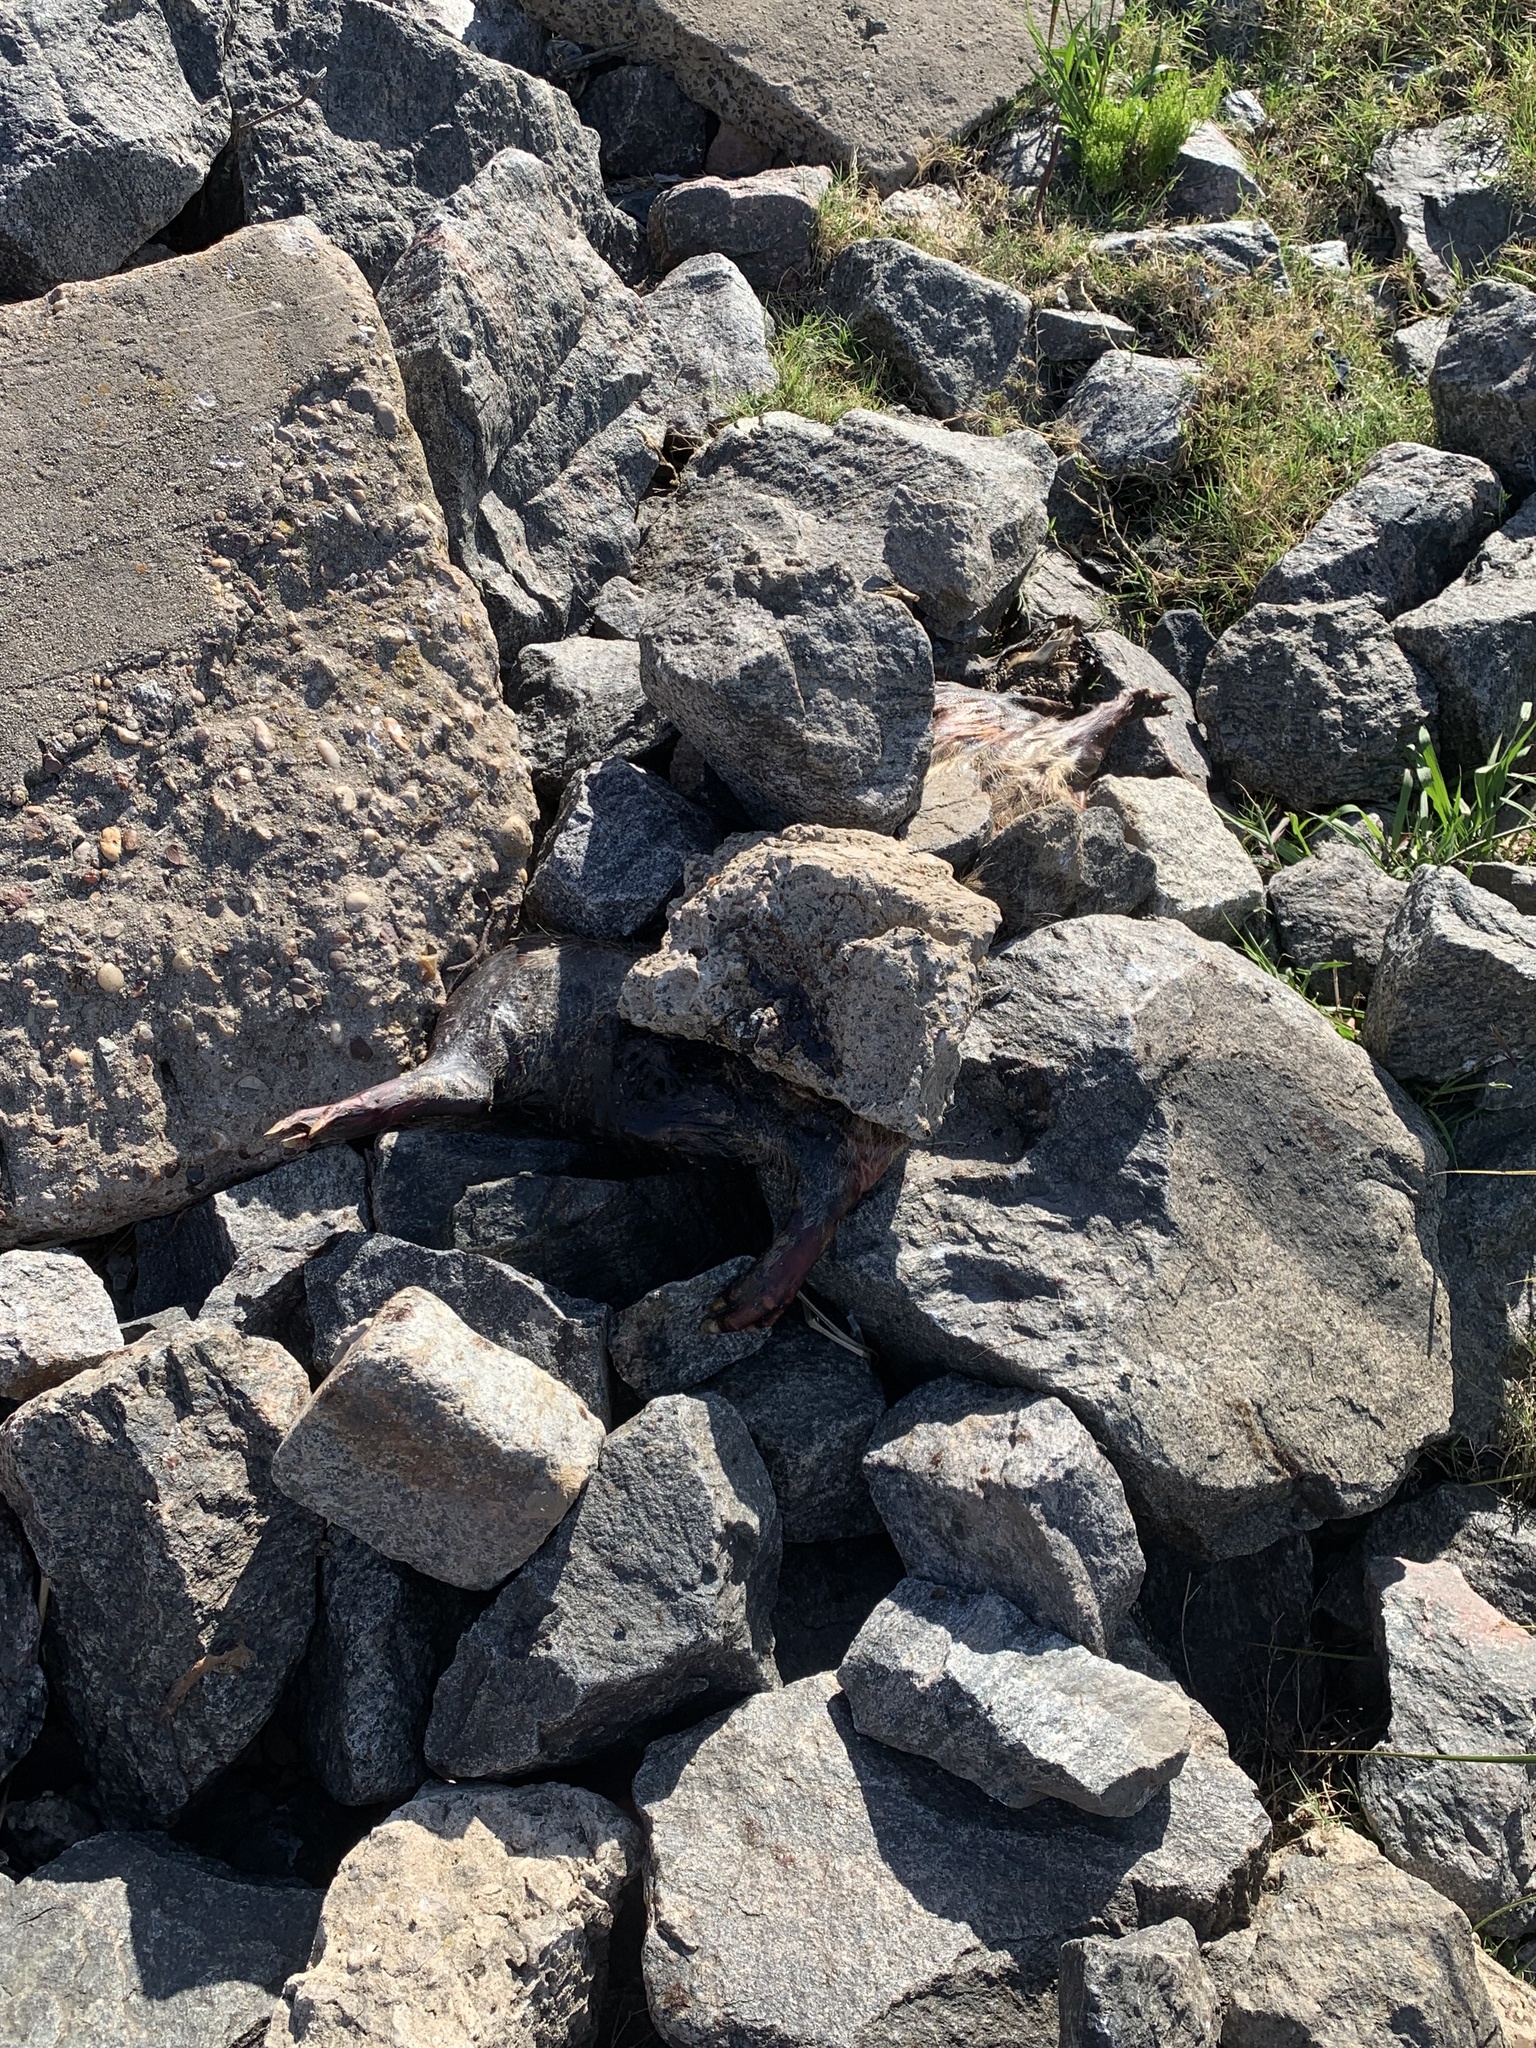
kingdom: Animalia
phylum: Chordata
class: Mammalia
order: Rodentia
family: Caviidae
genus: Hydrochoerus
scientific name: Hydrochoerus hydrochaeris
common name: Capybara
